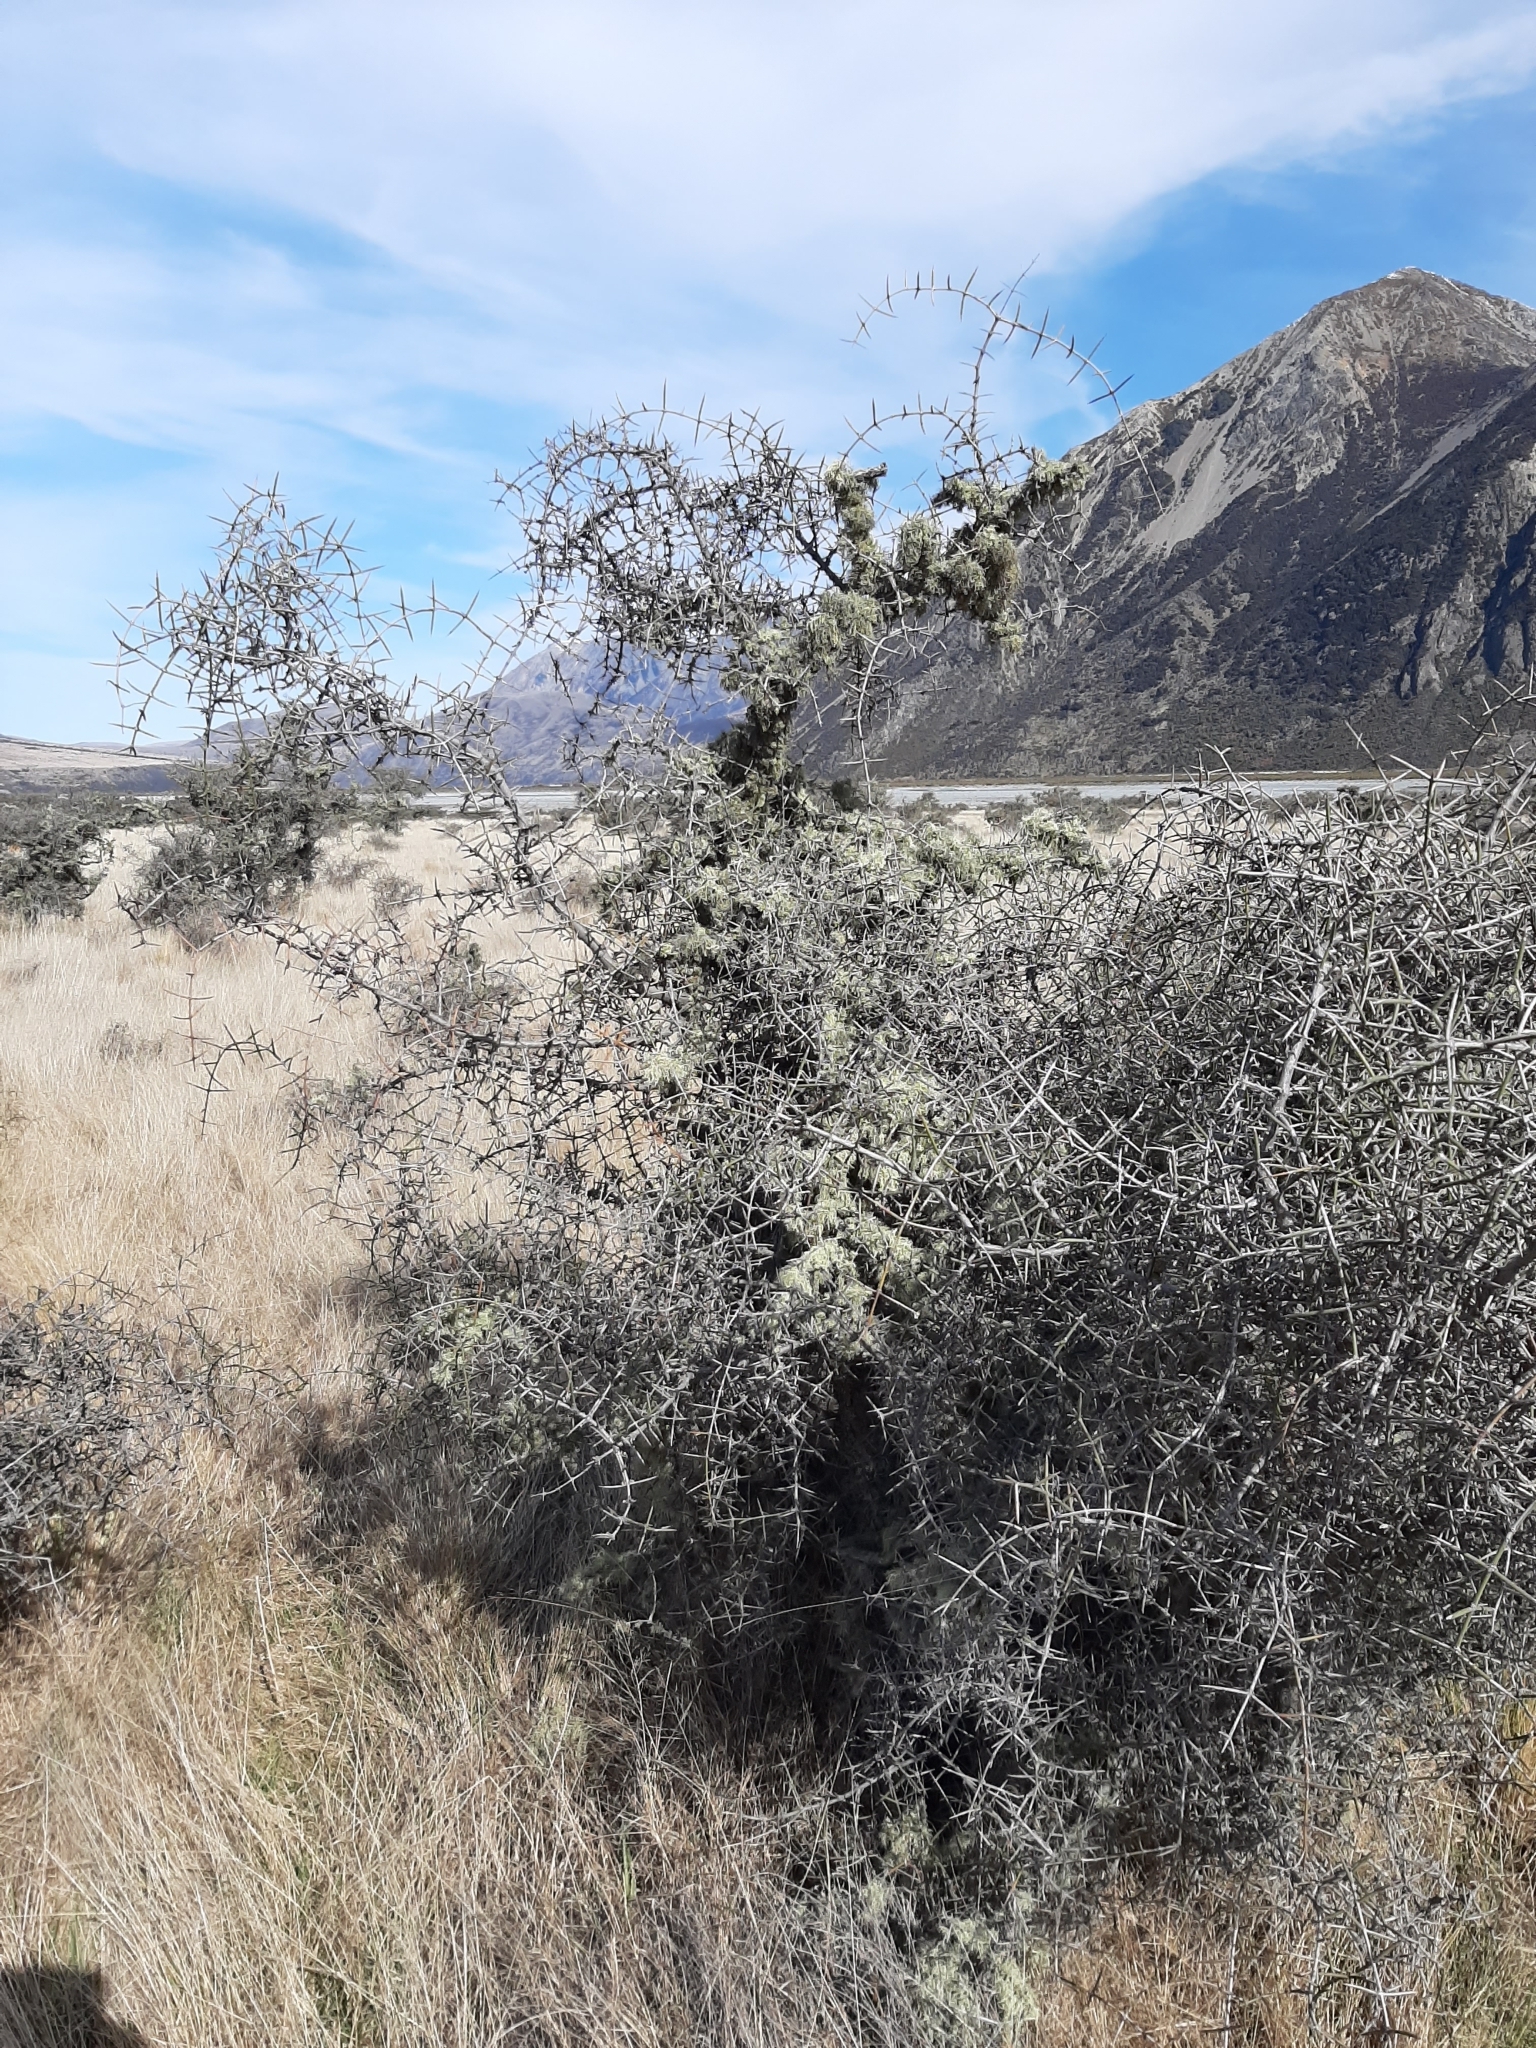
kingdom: Plantae
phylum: Tracheophyta
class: Magnoliopsida
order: Rosales
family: Rhamnaceae
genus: Discaria
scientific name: Discaria toumatou
